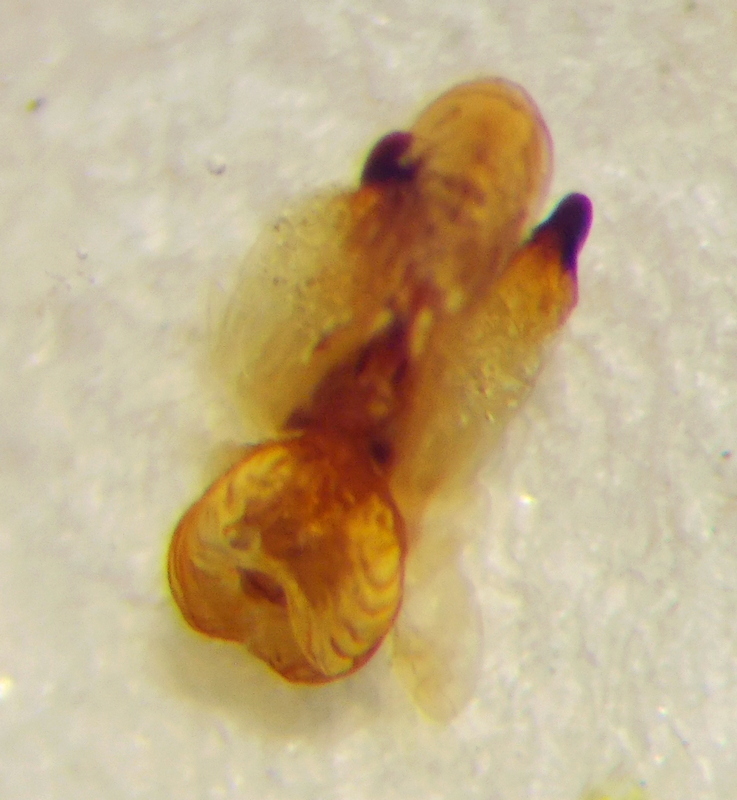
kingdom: Animalia
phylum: Arthropoda
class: Insecta
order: Hemiptera
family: Scutelleridae
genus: Odontotarsus
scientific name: Odontotarsus robustus
